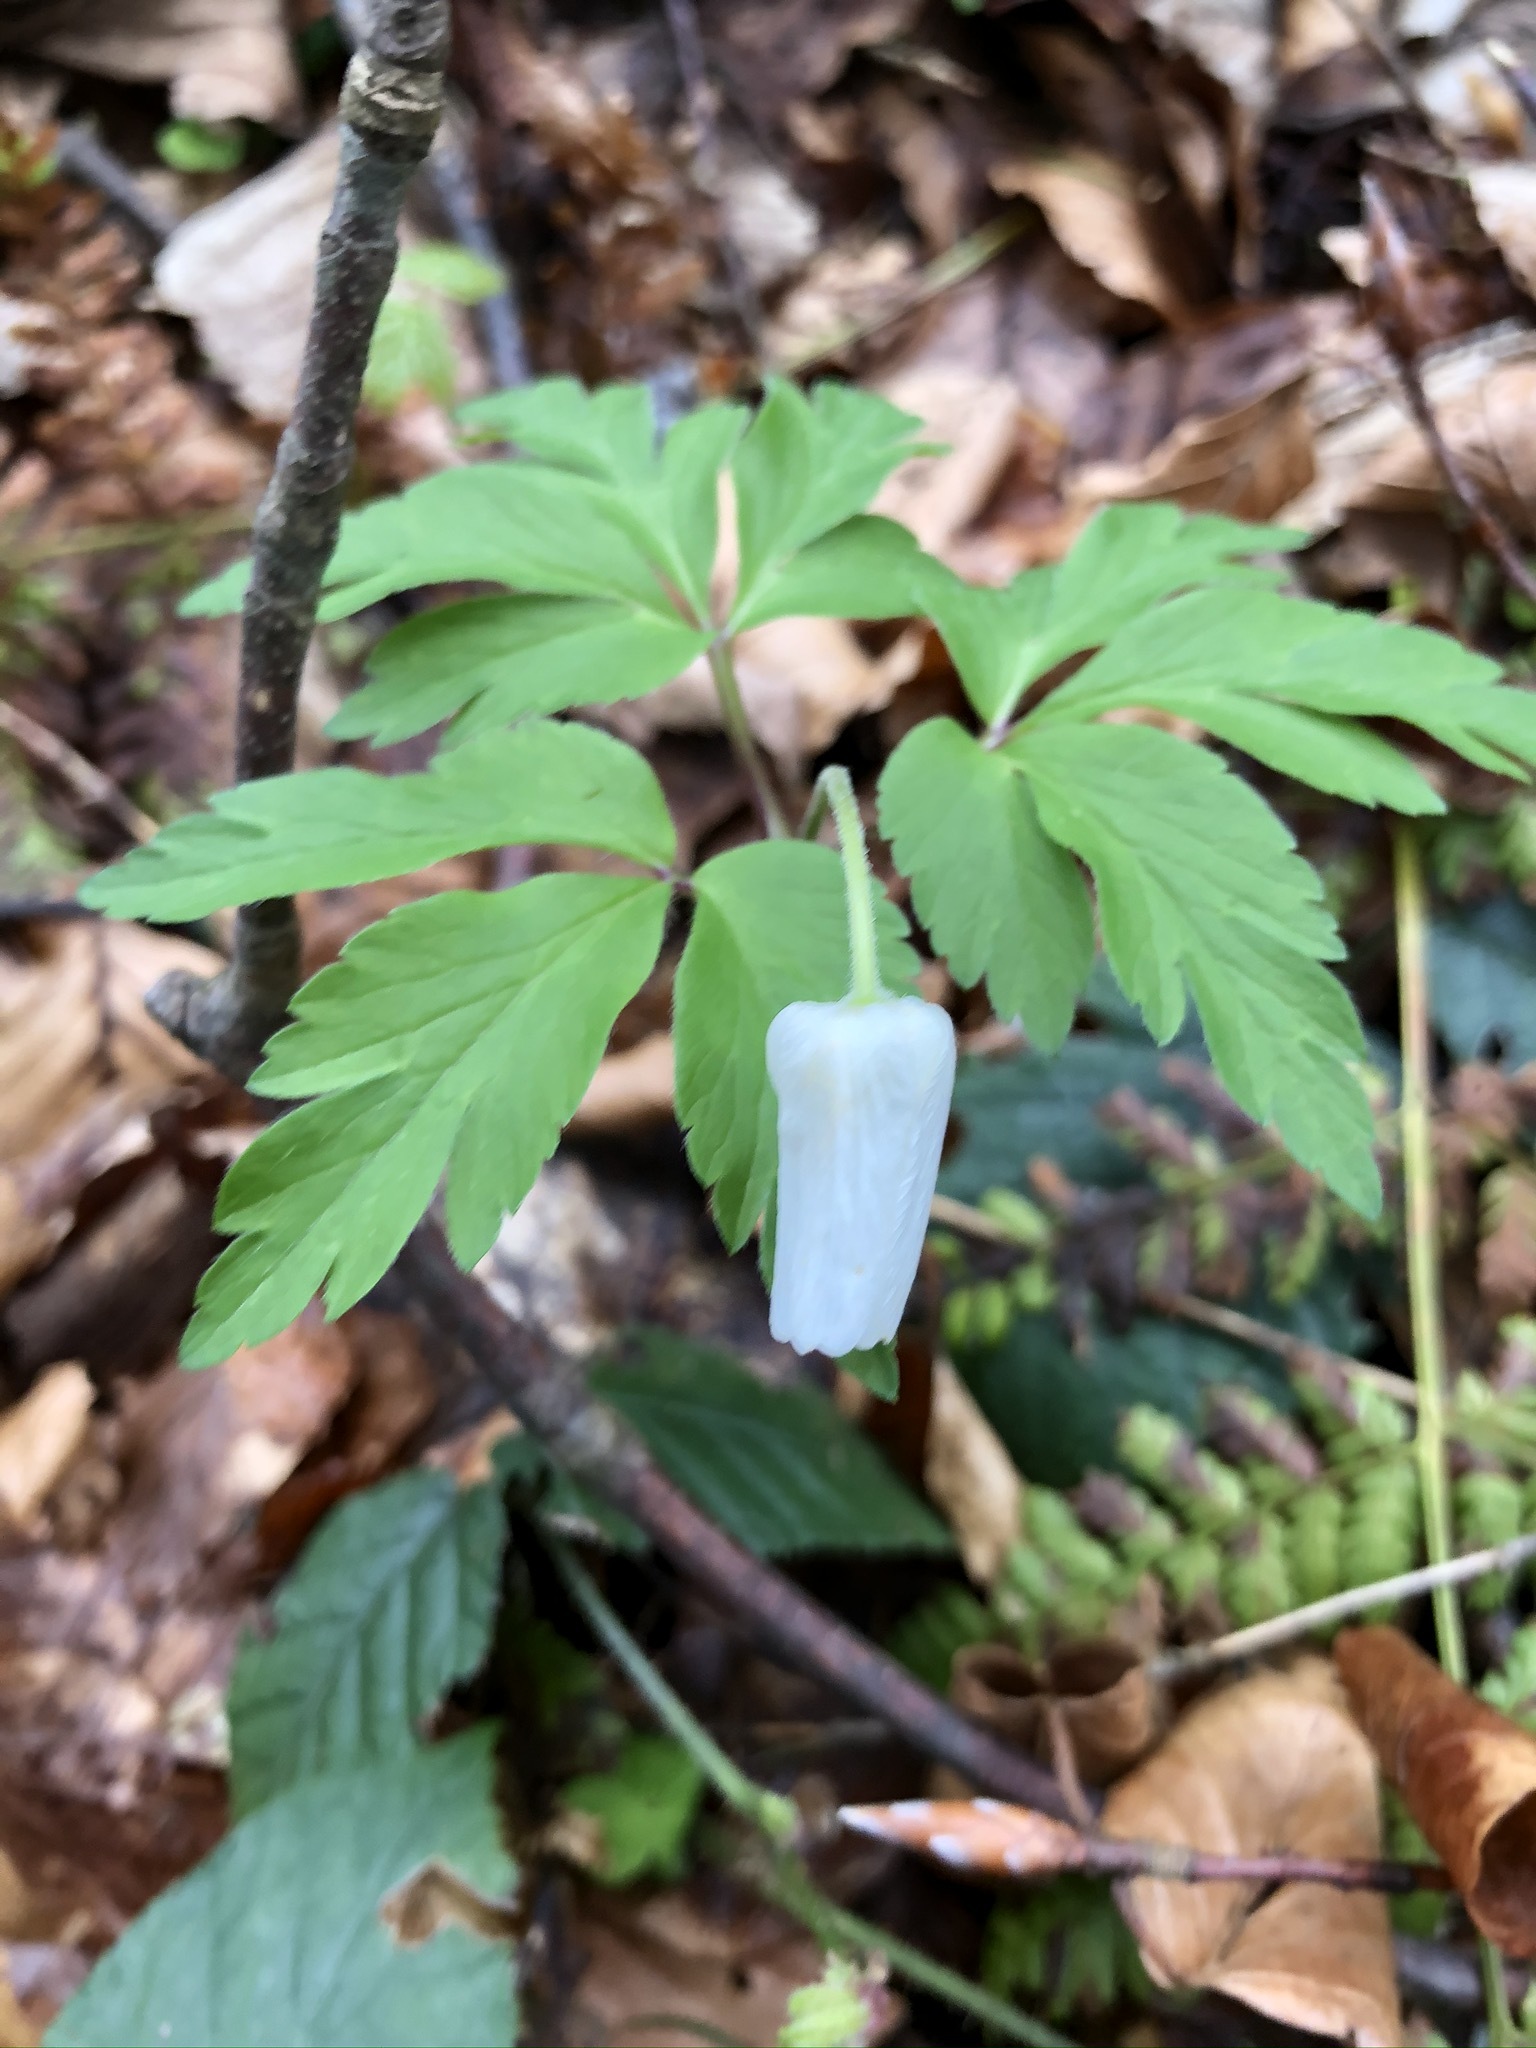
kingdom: Plantae
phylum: Tracheophyta
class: Magnoliopsida
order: Ranunculales
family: Ranunculaceae
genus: Anemone
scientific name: Anemone nemorosa
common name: Wood anemone
